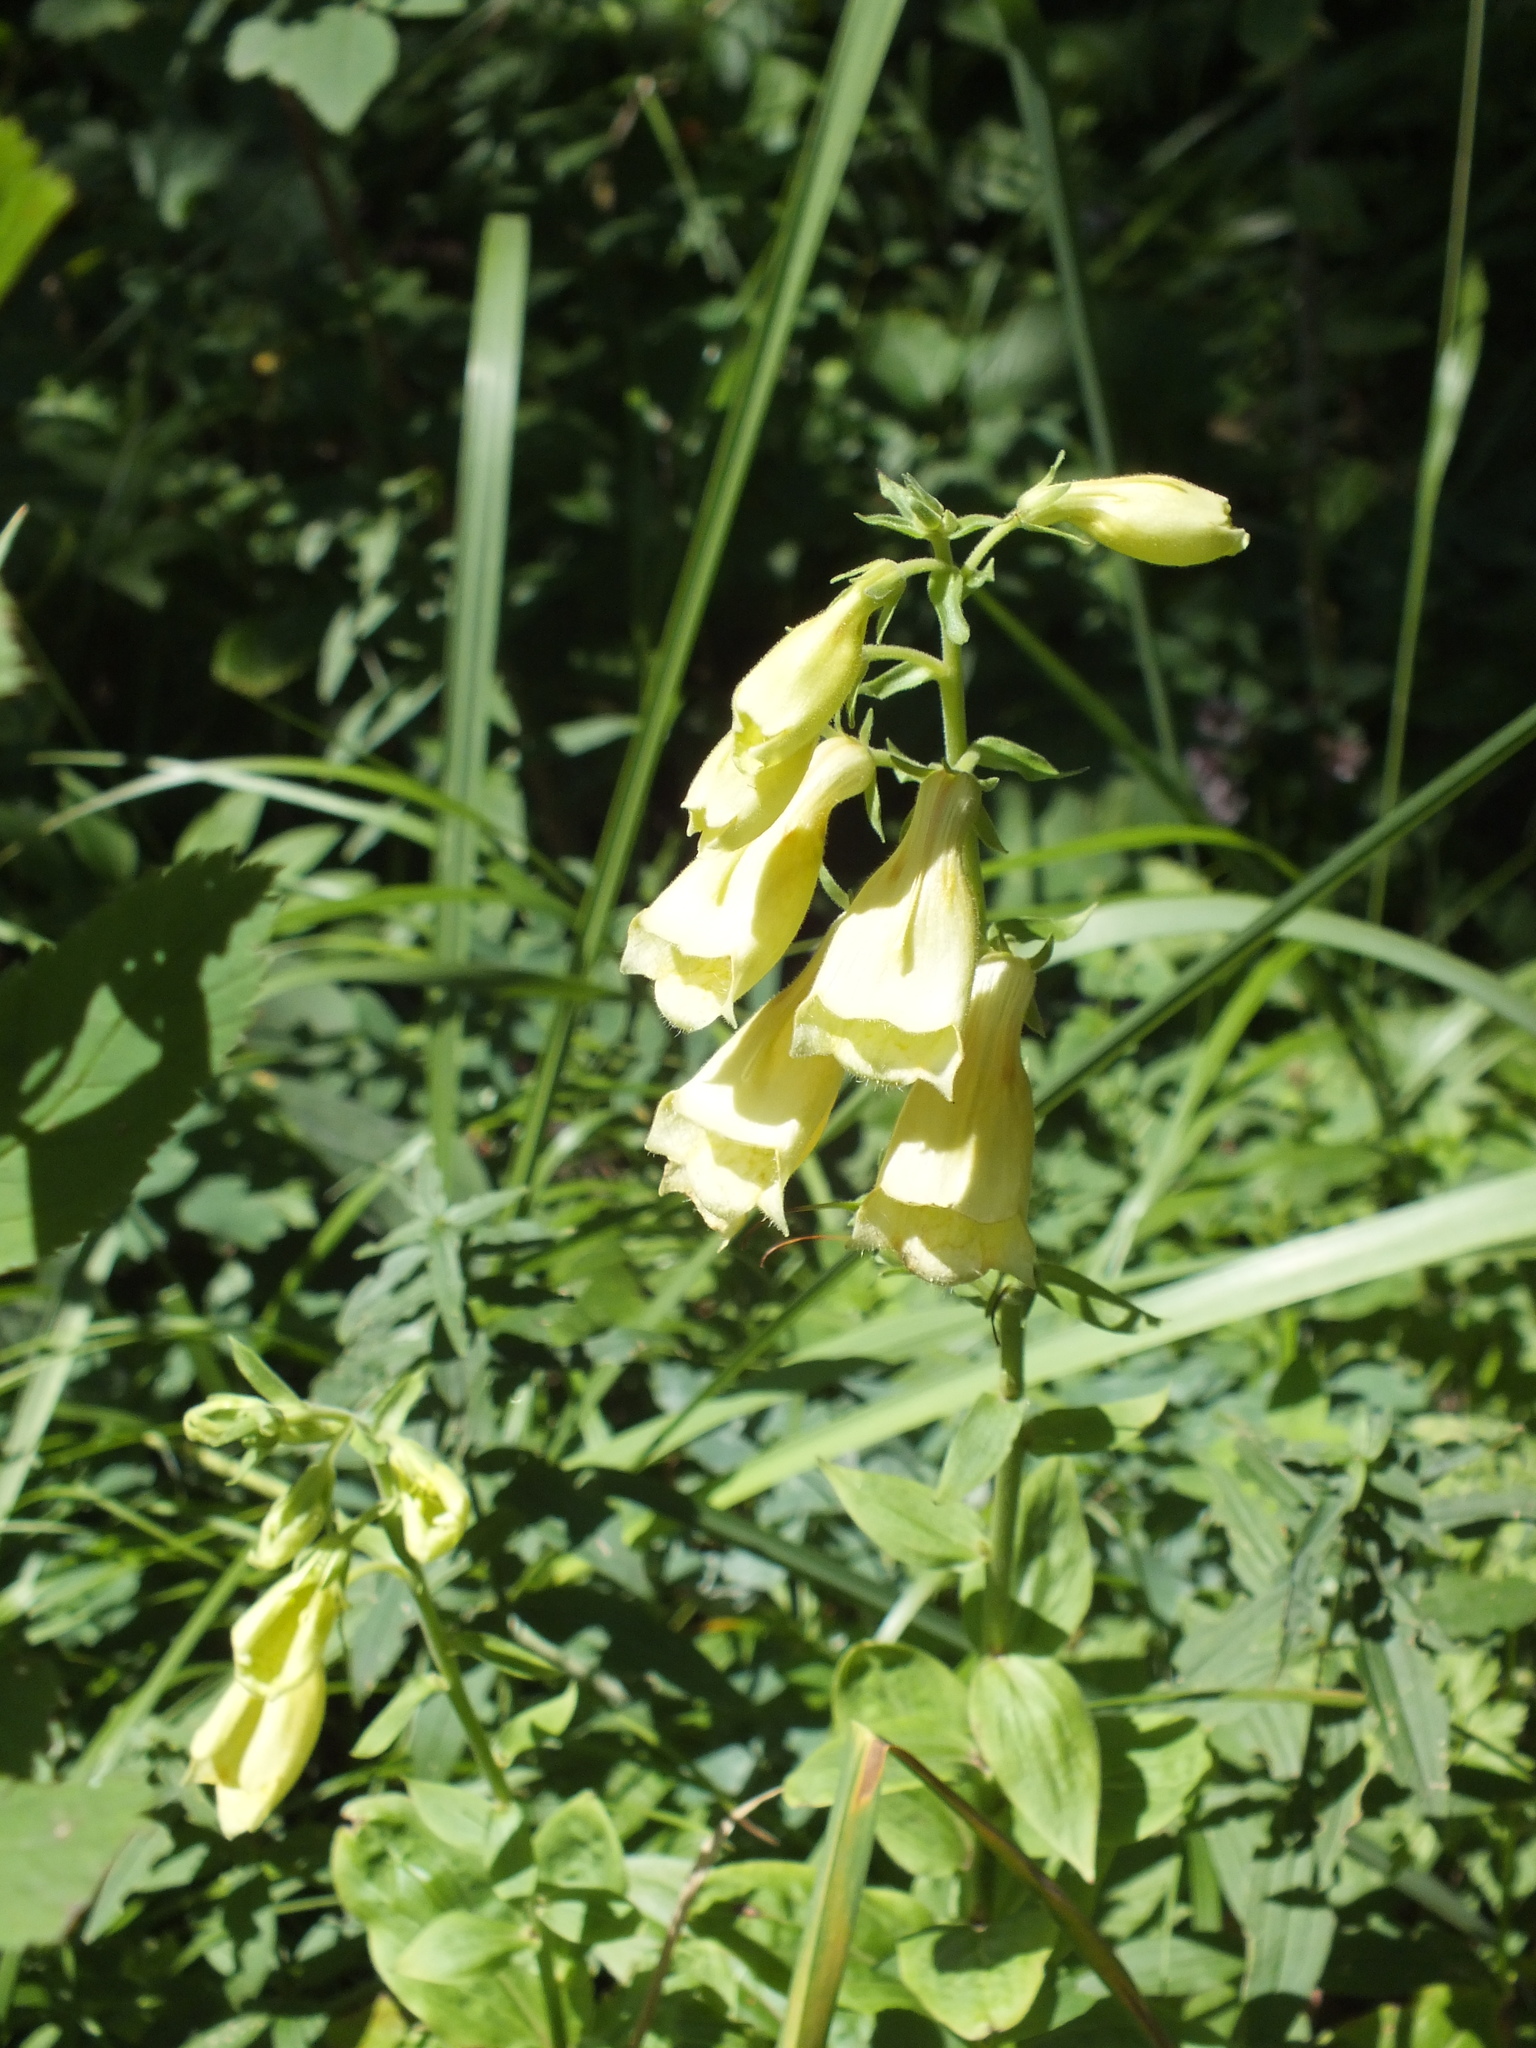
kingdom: Plantae
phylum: Tracheophyta
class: Magnoliopsida
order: Lamiales
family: Plantaginaceae
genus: Digitalis
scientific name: Digitalis grandiflora
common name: Yellow foxglove
